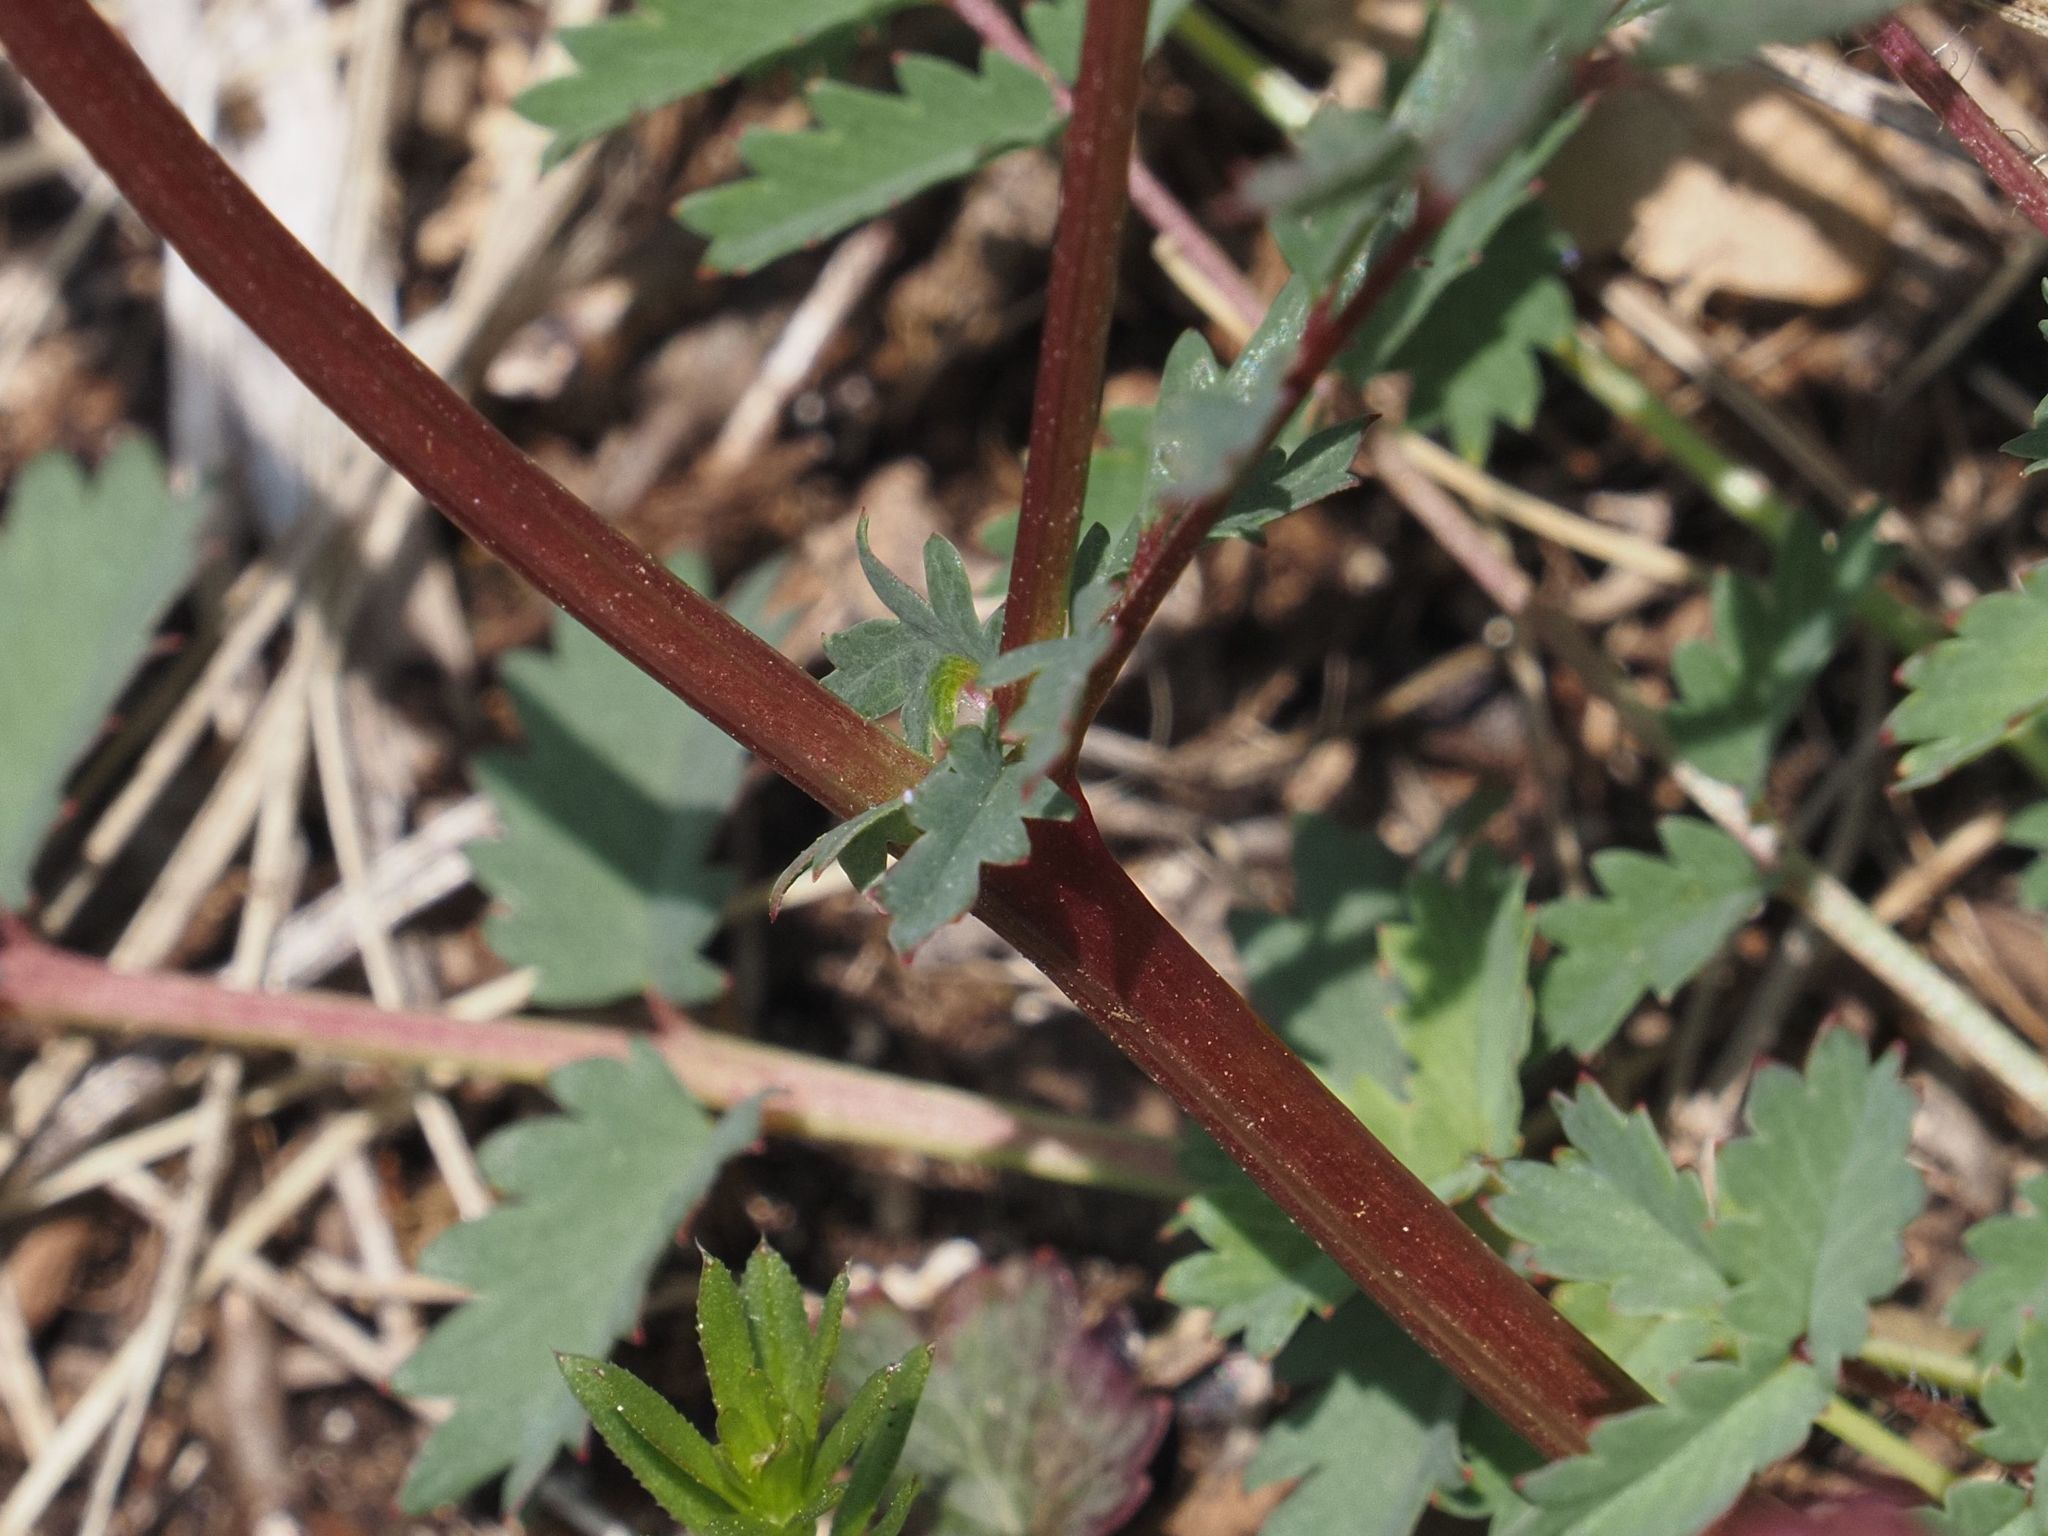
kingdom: Plantae
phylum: Tracheophyta
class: Magnoliopsida
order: Rosales
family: Rosaceae
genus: Poterium
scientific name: Poterium sanguisorba
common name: Salad burnet
